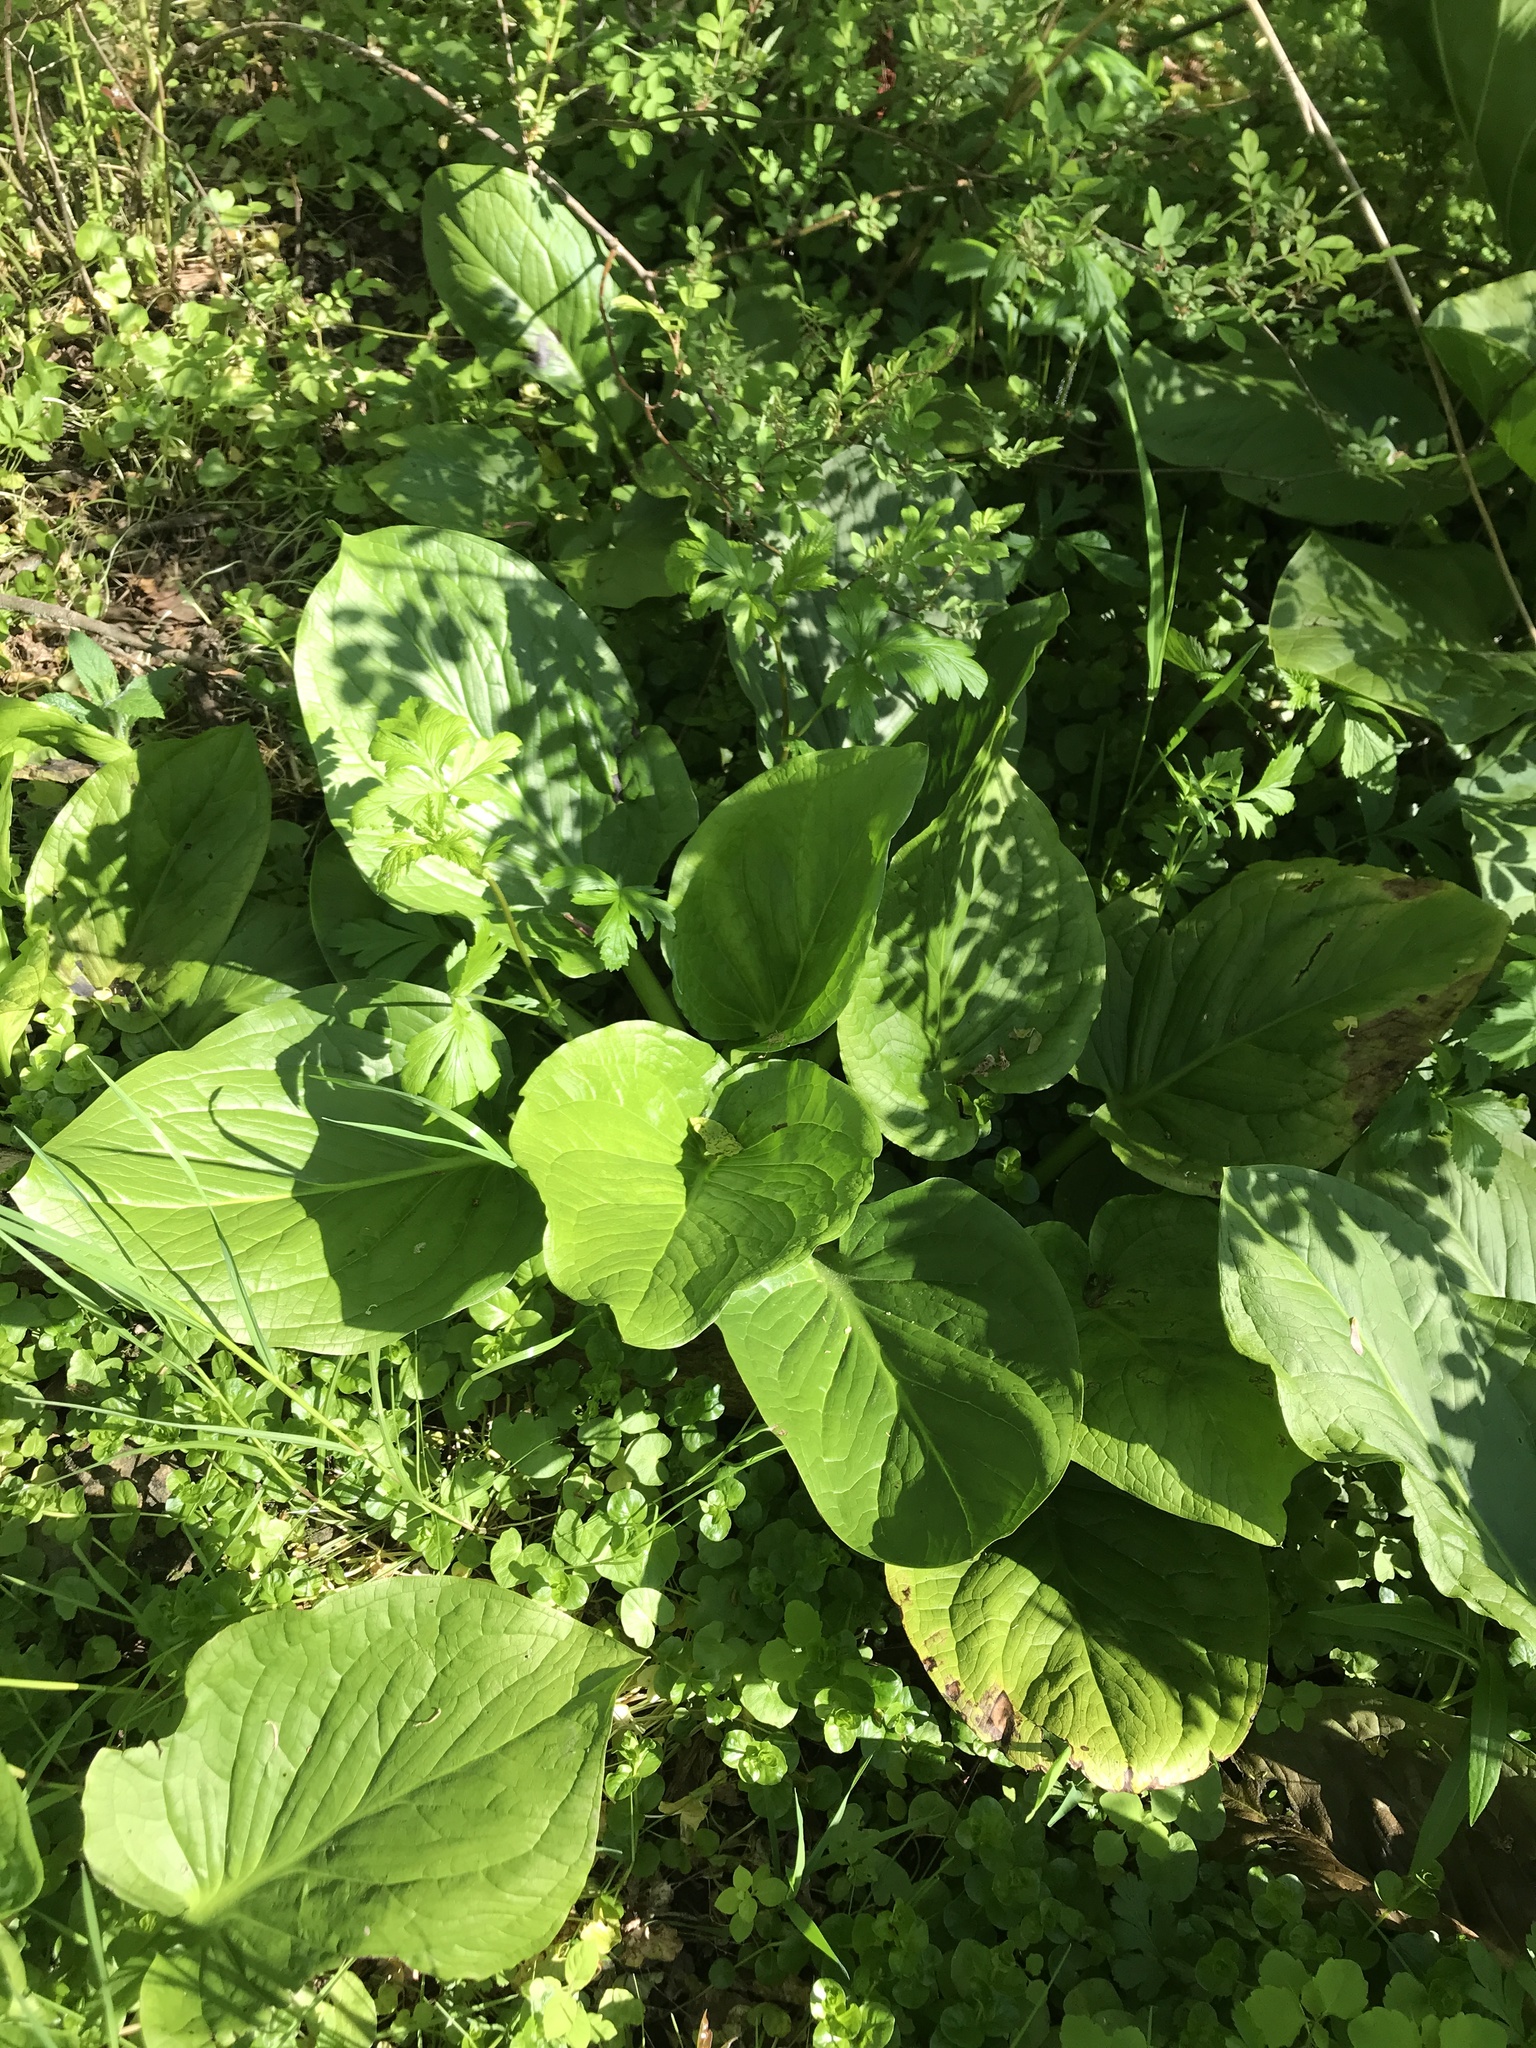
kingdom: Plantae
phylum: Tracheophyta
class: Liliopsida
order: Alismatales
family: Araceae
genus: Symplocarpus
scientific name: Symplocarpus foetidus
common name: Eastern skunk cabbage
